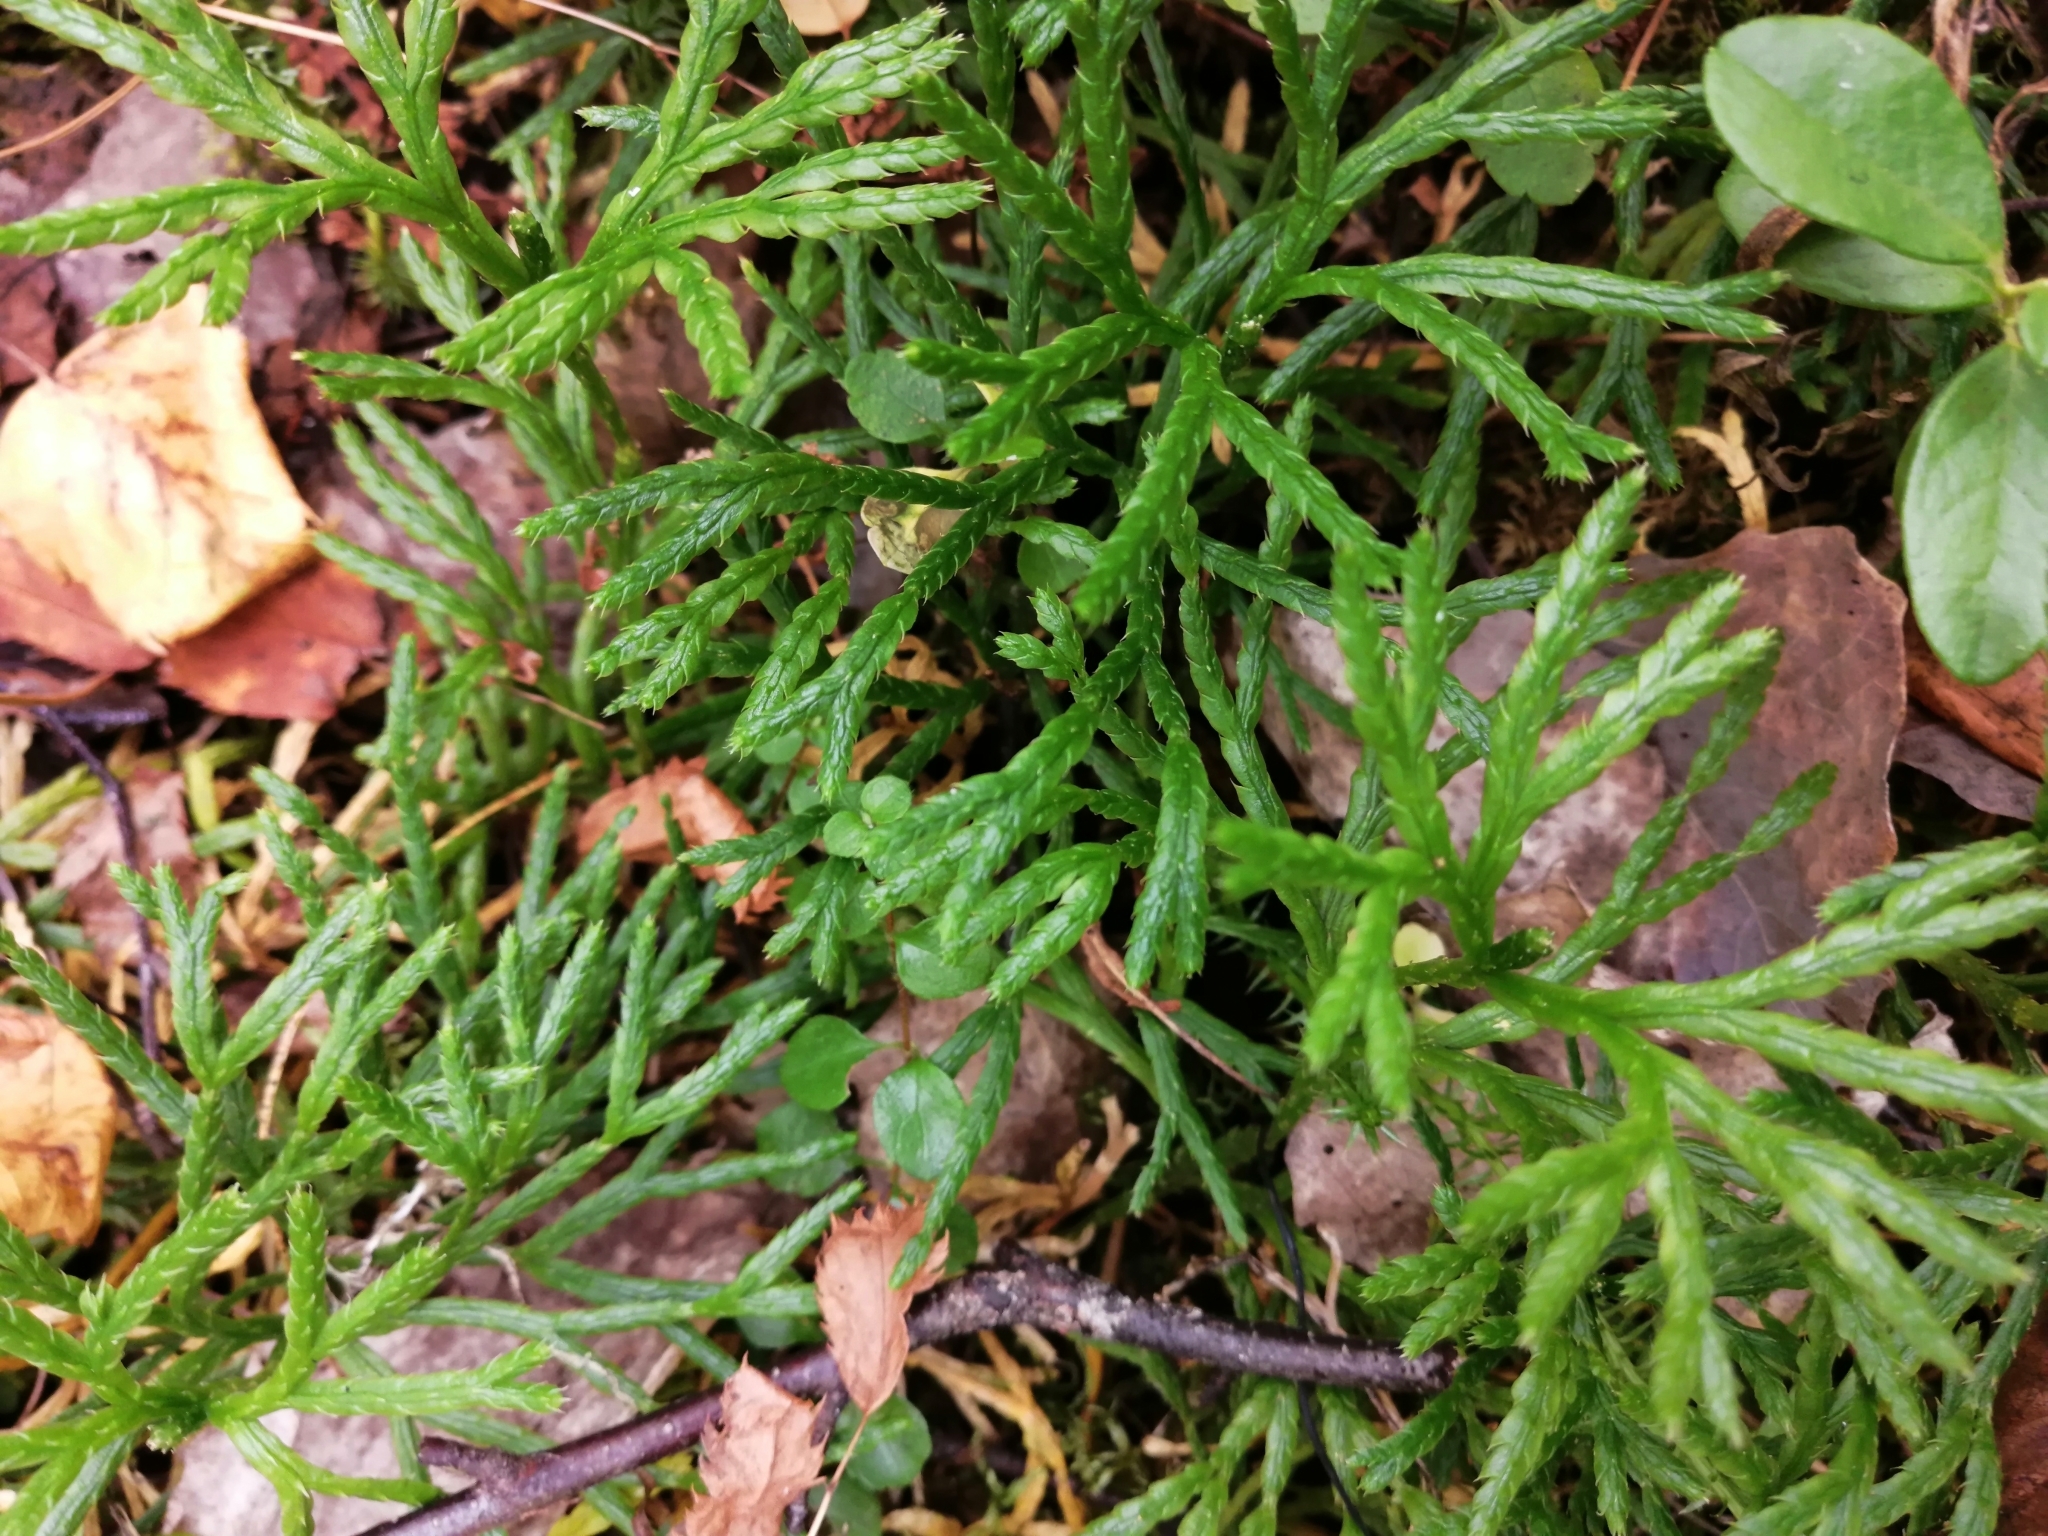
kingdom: Plantae
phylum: Tracheophyta
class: Lycopodiopsida
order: Lycopodiales
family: Lycopodiaceae
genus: Diphasiastrum
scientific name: Diphasiastrum complanatum
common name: Northern running-pine
